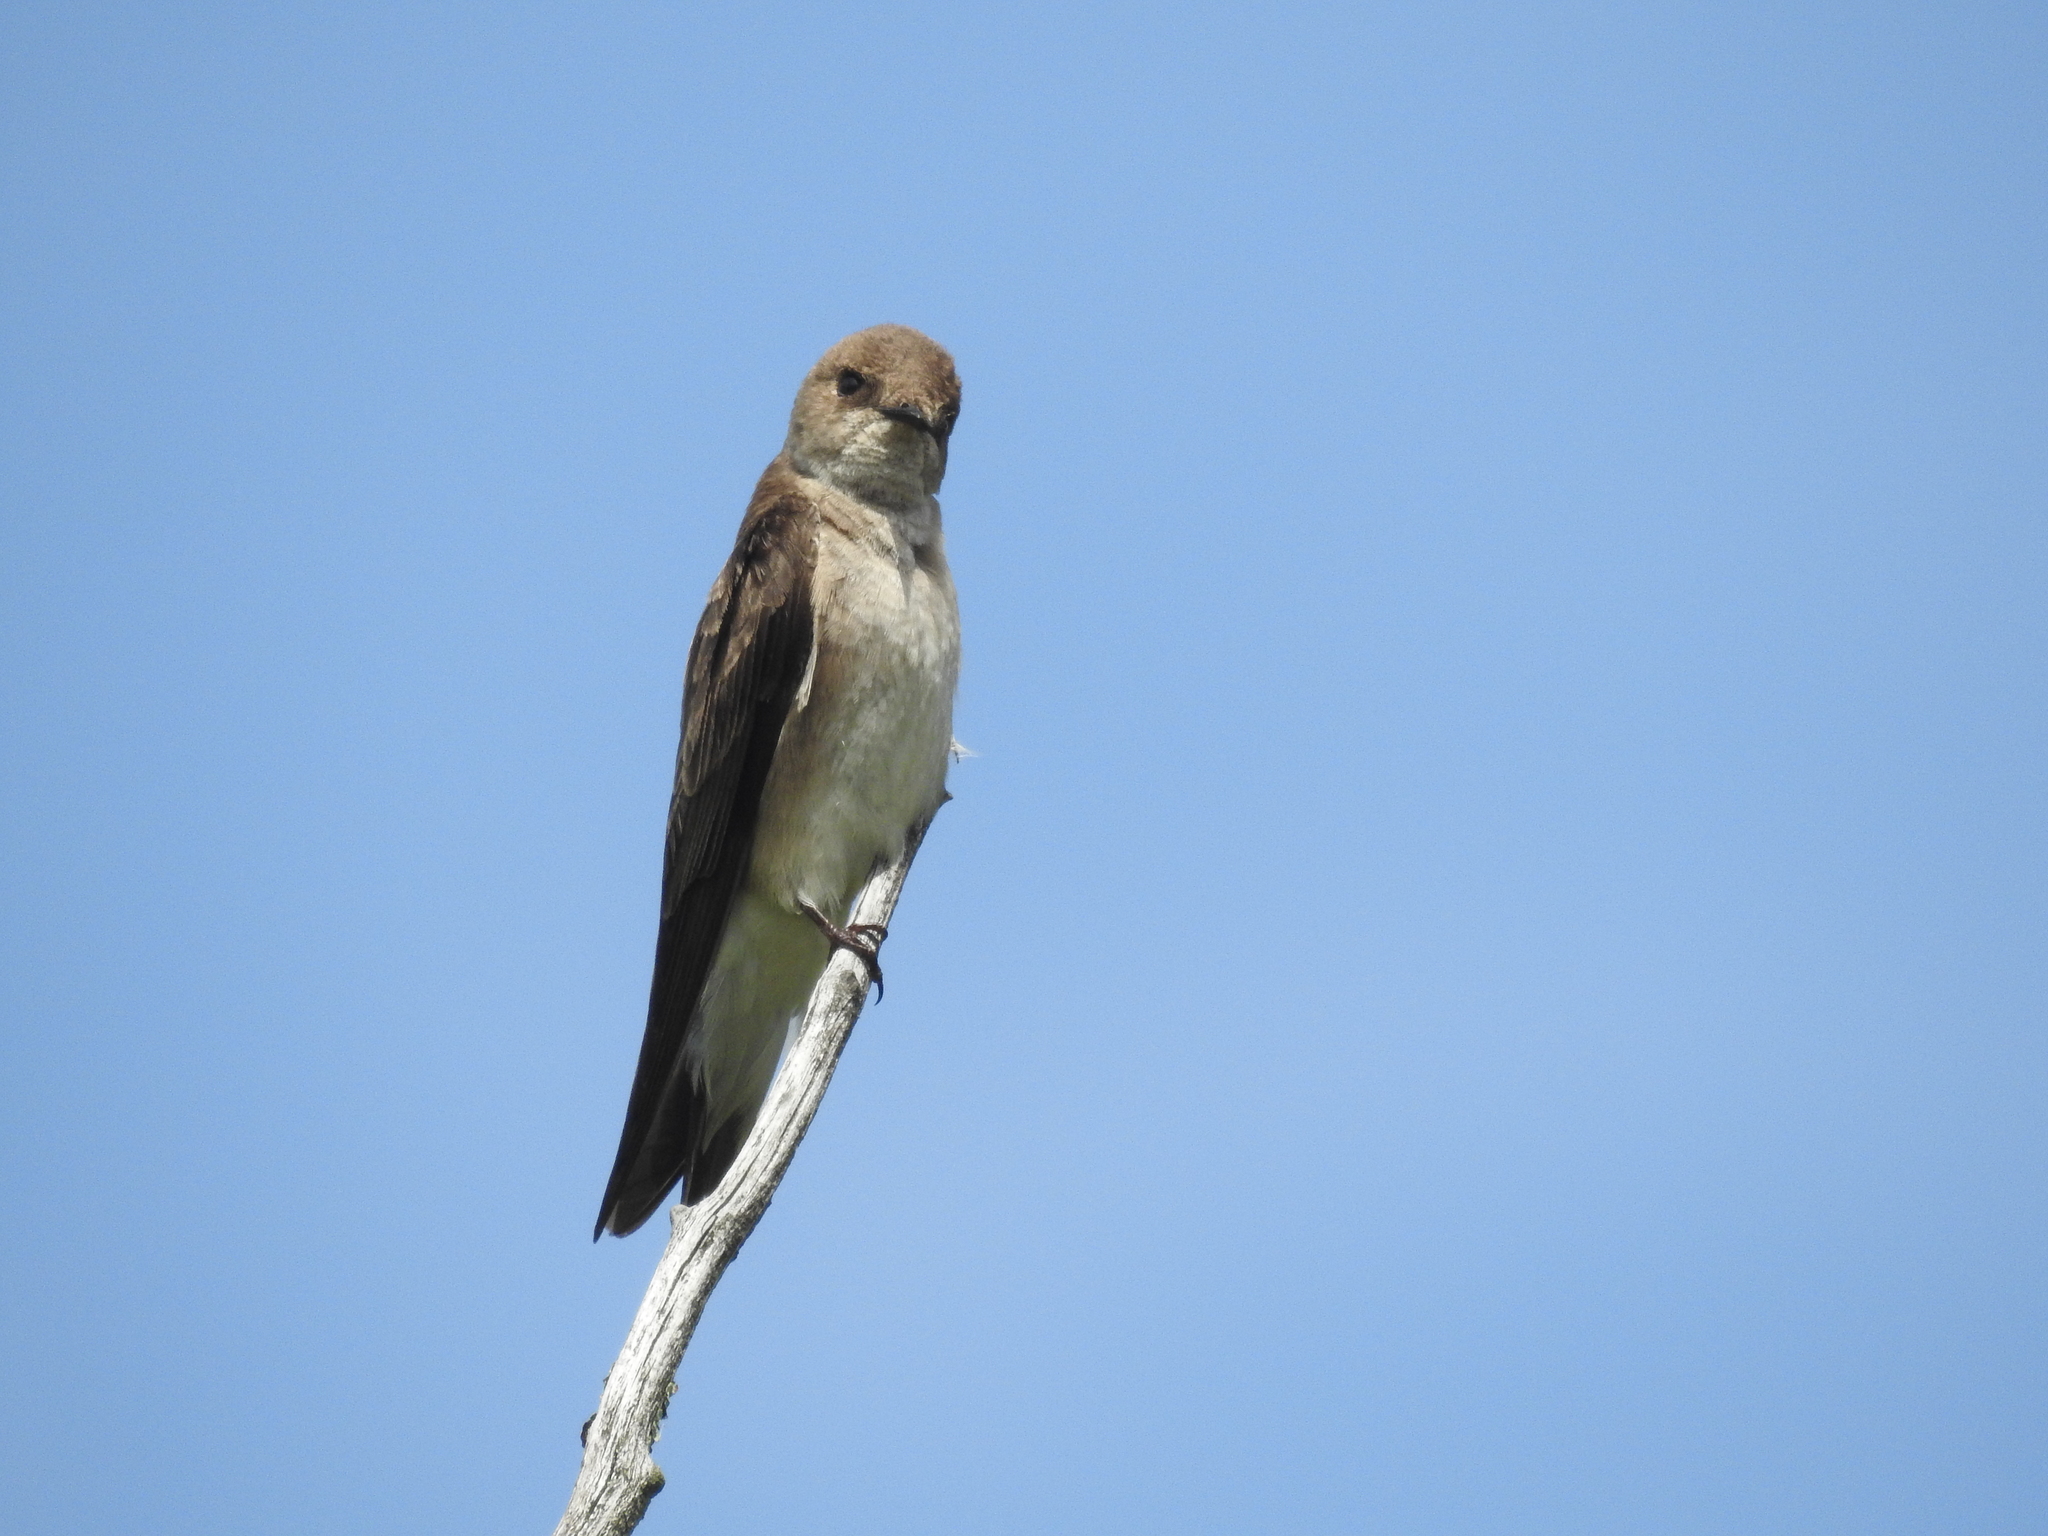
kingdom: Animalia
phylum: Chordata
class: Aves
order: Passeriformes
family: Hirundinidae
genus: Stelgidopteryx
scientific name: Stelgidopteryx serripennis
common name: Northern rough-winged swallow
